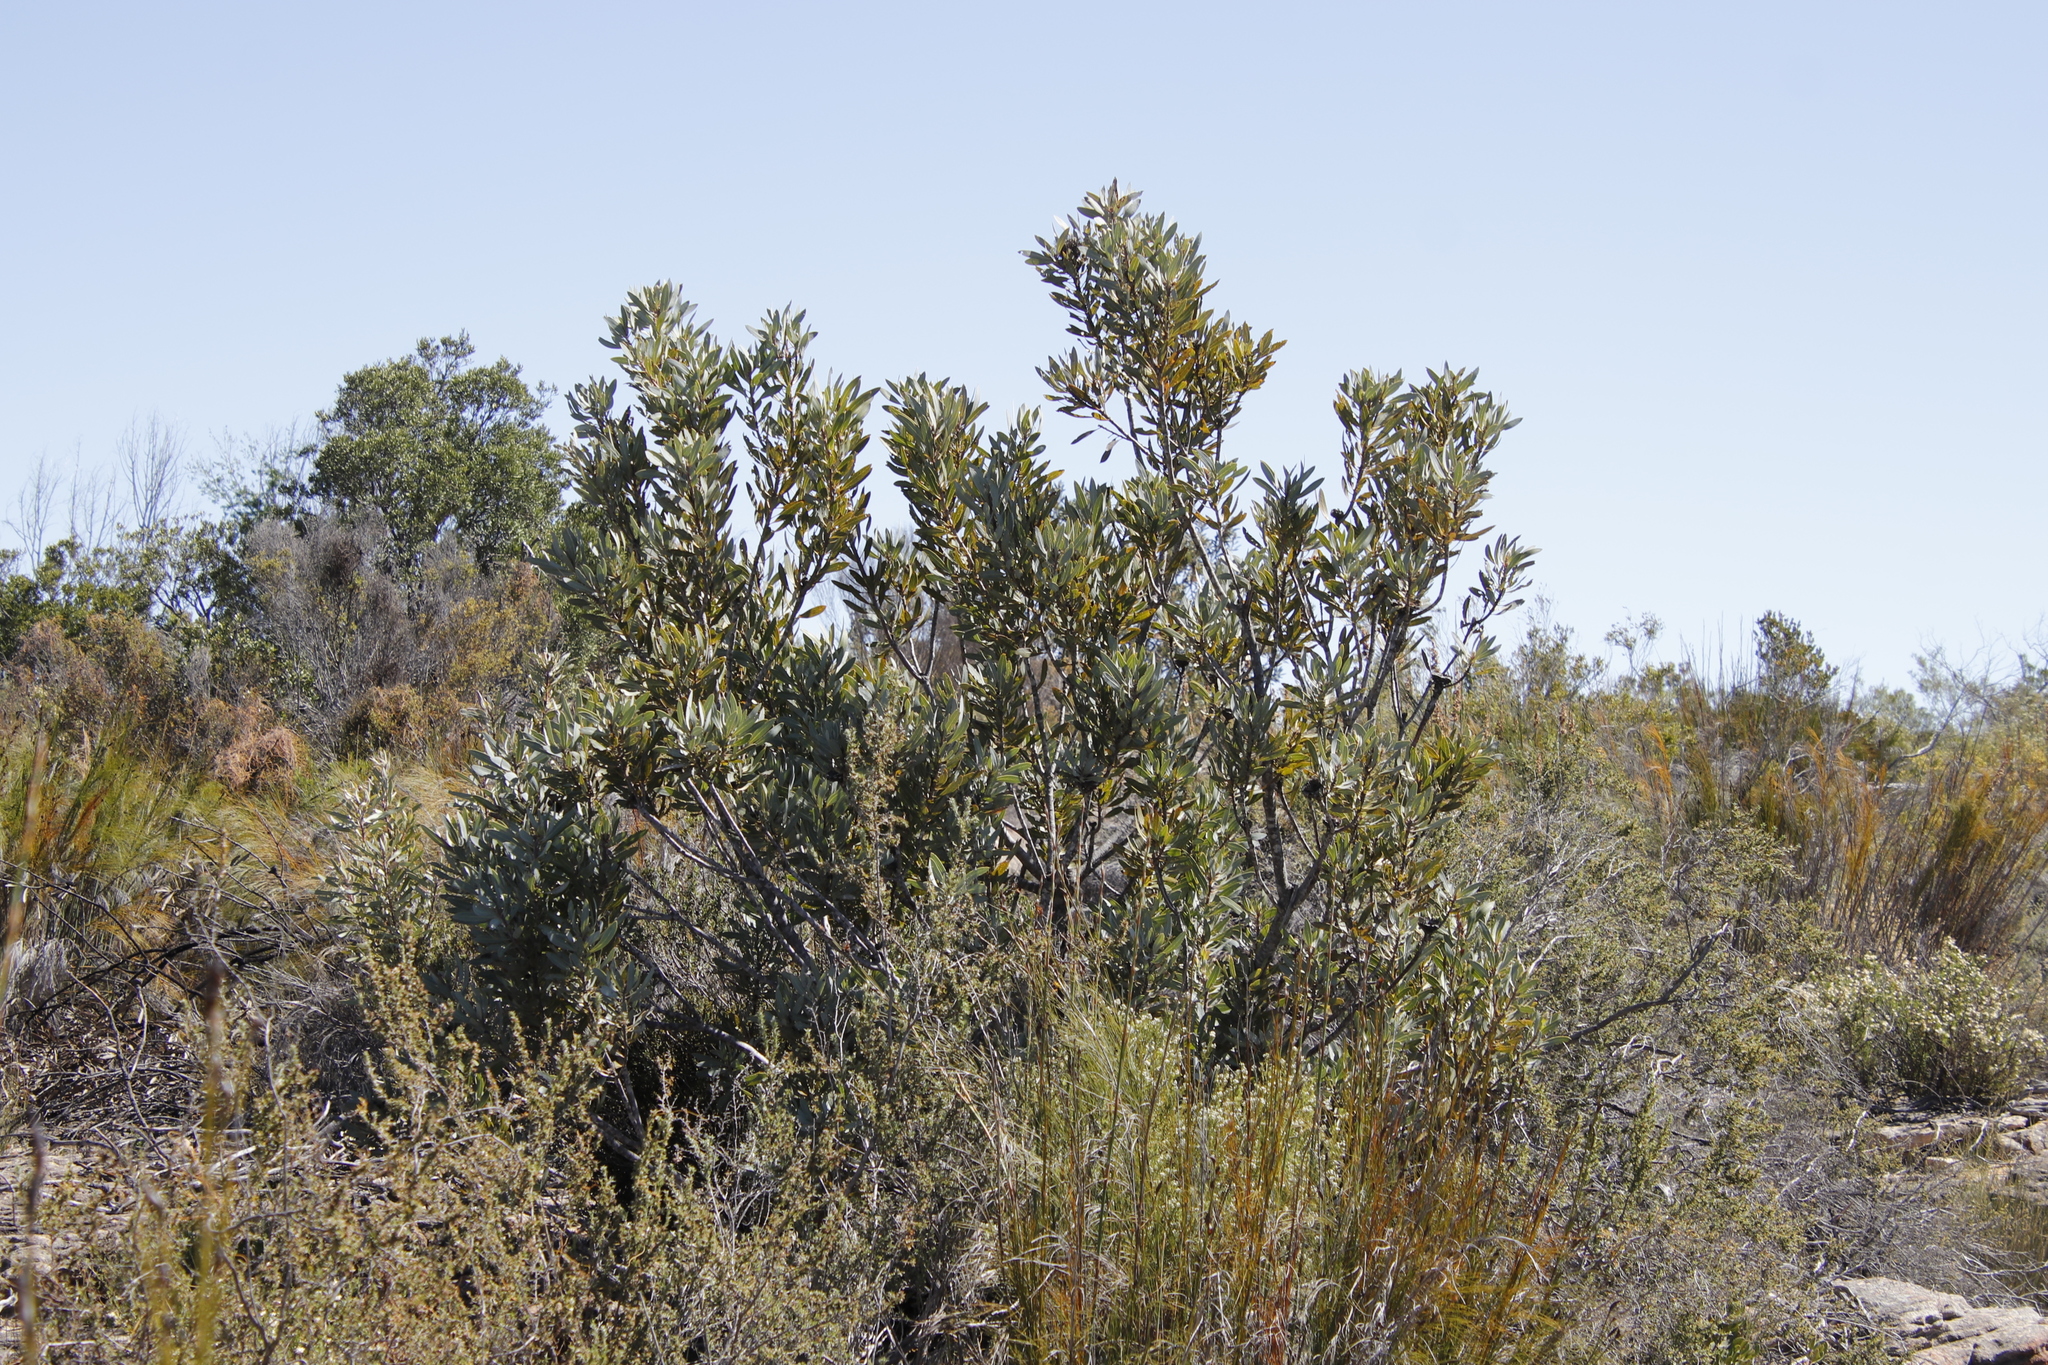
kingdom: Plantae
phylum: Tracheophyta
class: Magnoliopsida
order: Proteales
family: Proteaceae
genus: Protea
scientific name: Protea laurifolia
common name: Grey-leaf sugarbsh
